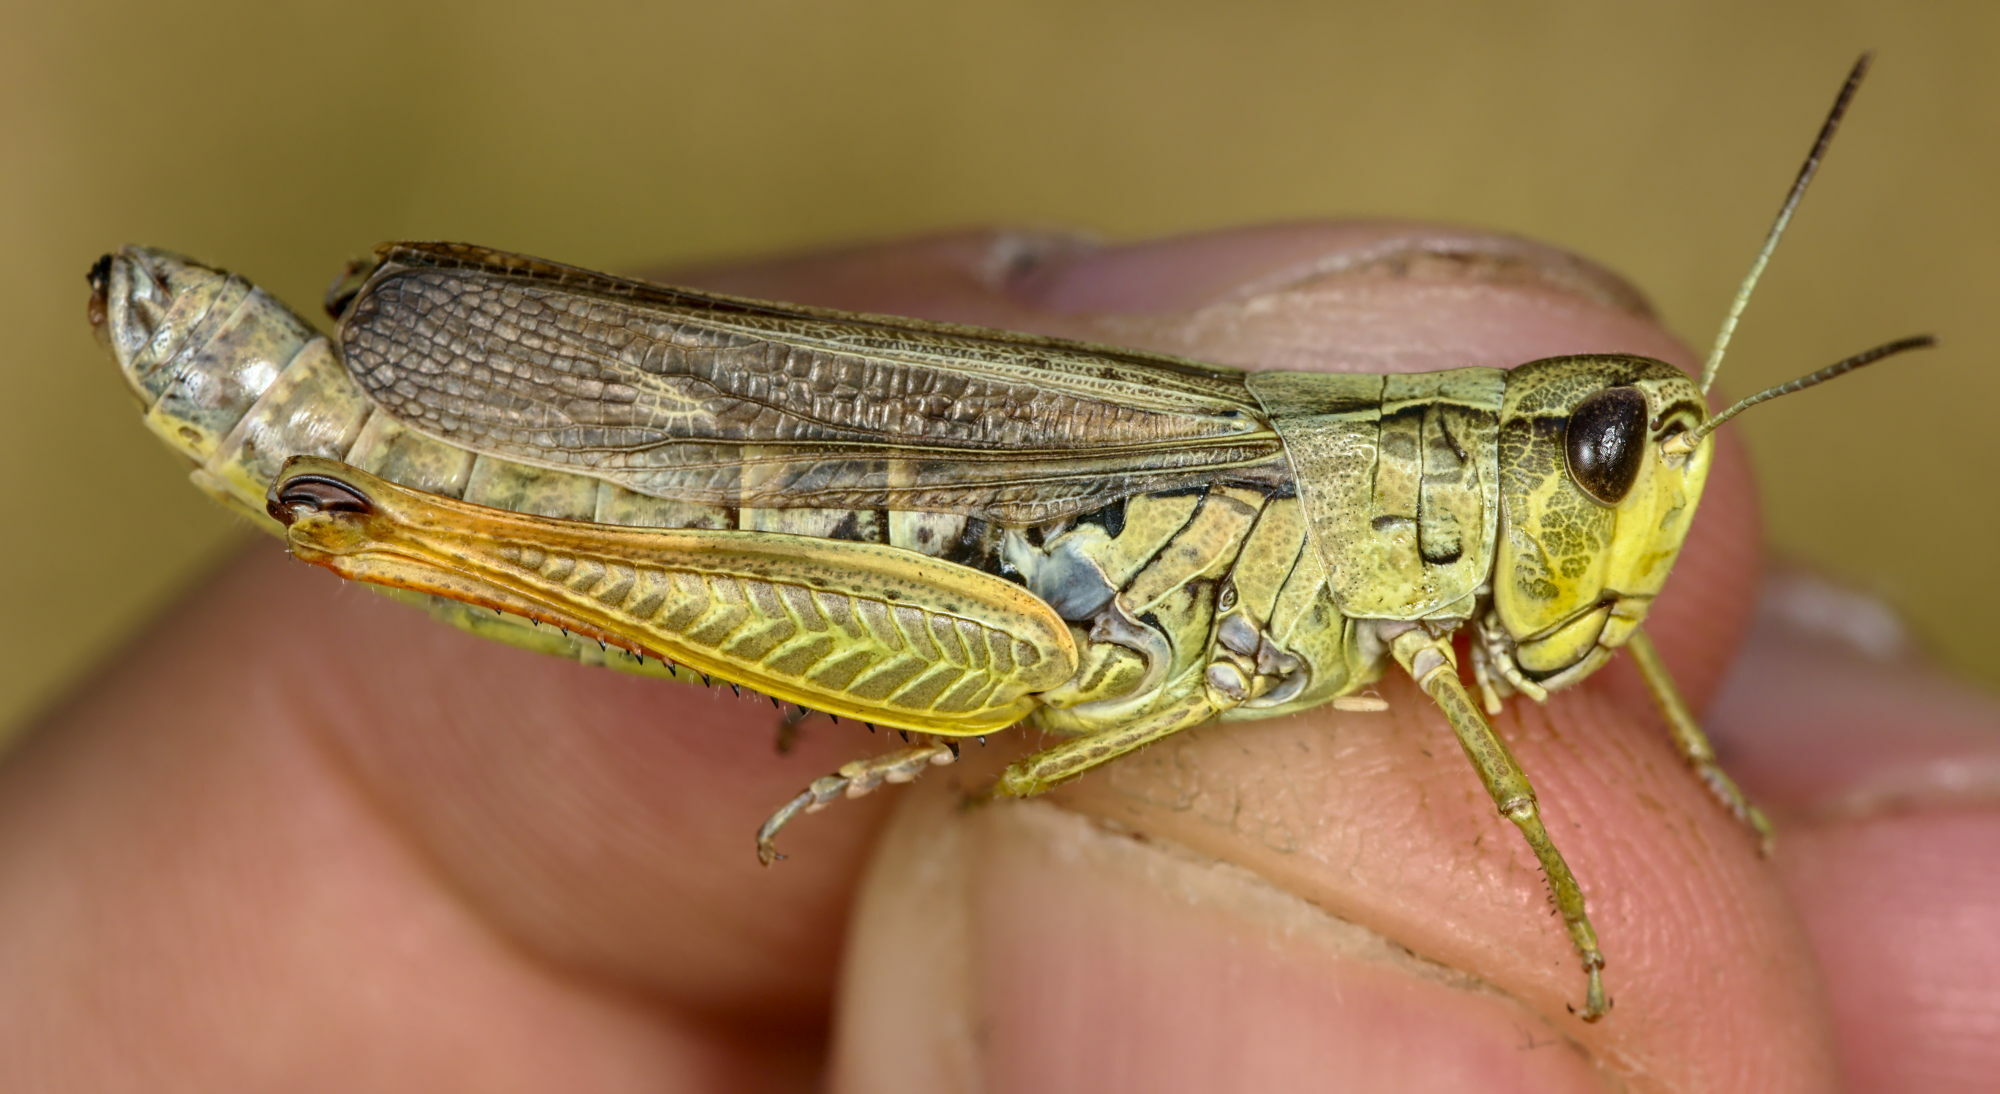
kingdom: Animalia
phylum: Arthropoda
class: Insecta
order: Orthoptera
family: Acrididae
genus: Stauroderus
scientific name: Stauroderus scalaris
